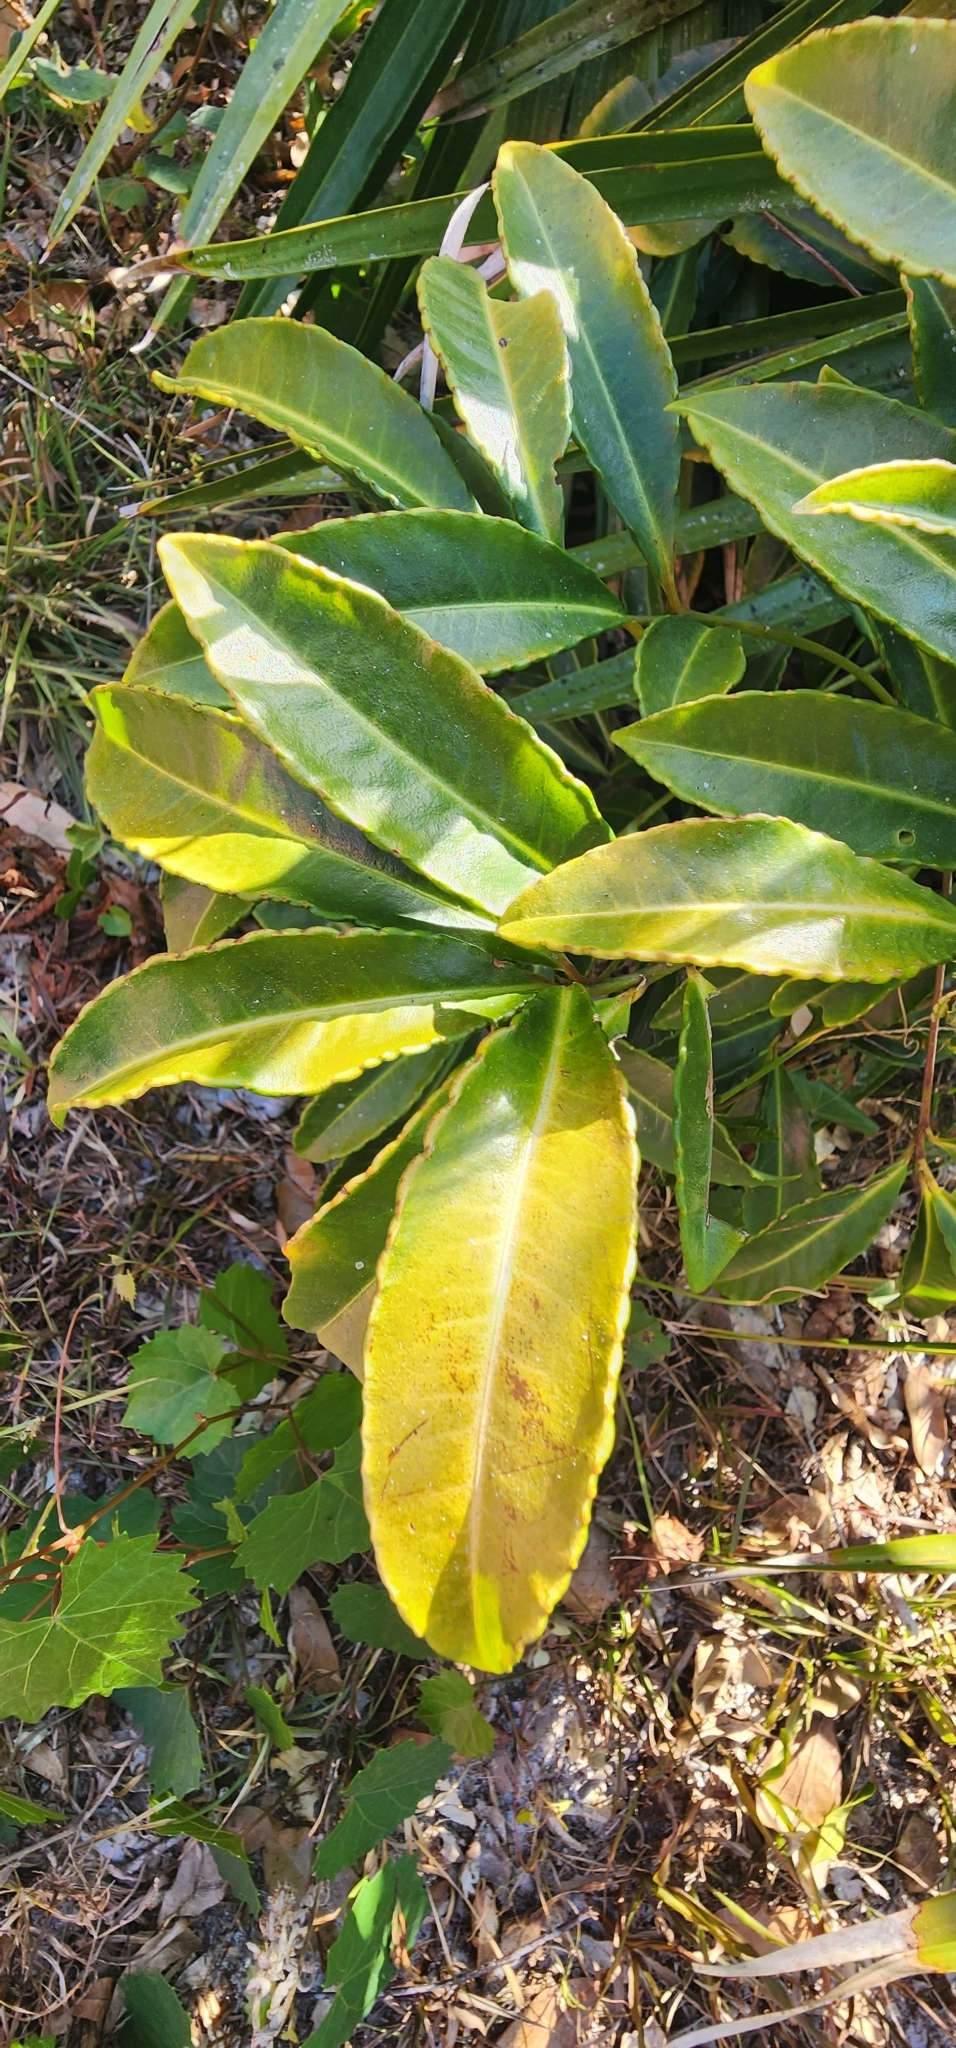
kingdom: Plantae
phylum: Tracheophyta
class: Magnoliopsida
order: Ericales
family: Primulaceae
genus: Ardisia
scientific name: Ardisia crenata
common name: Hen's eyes
